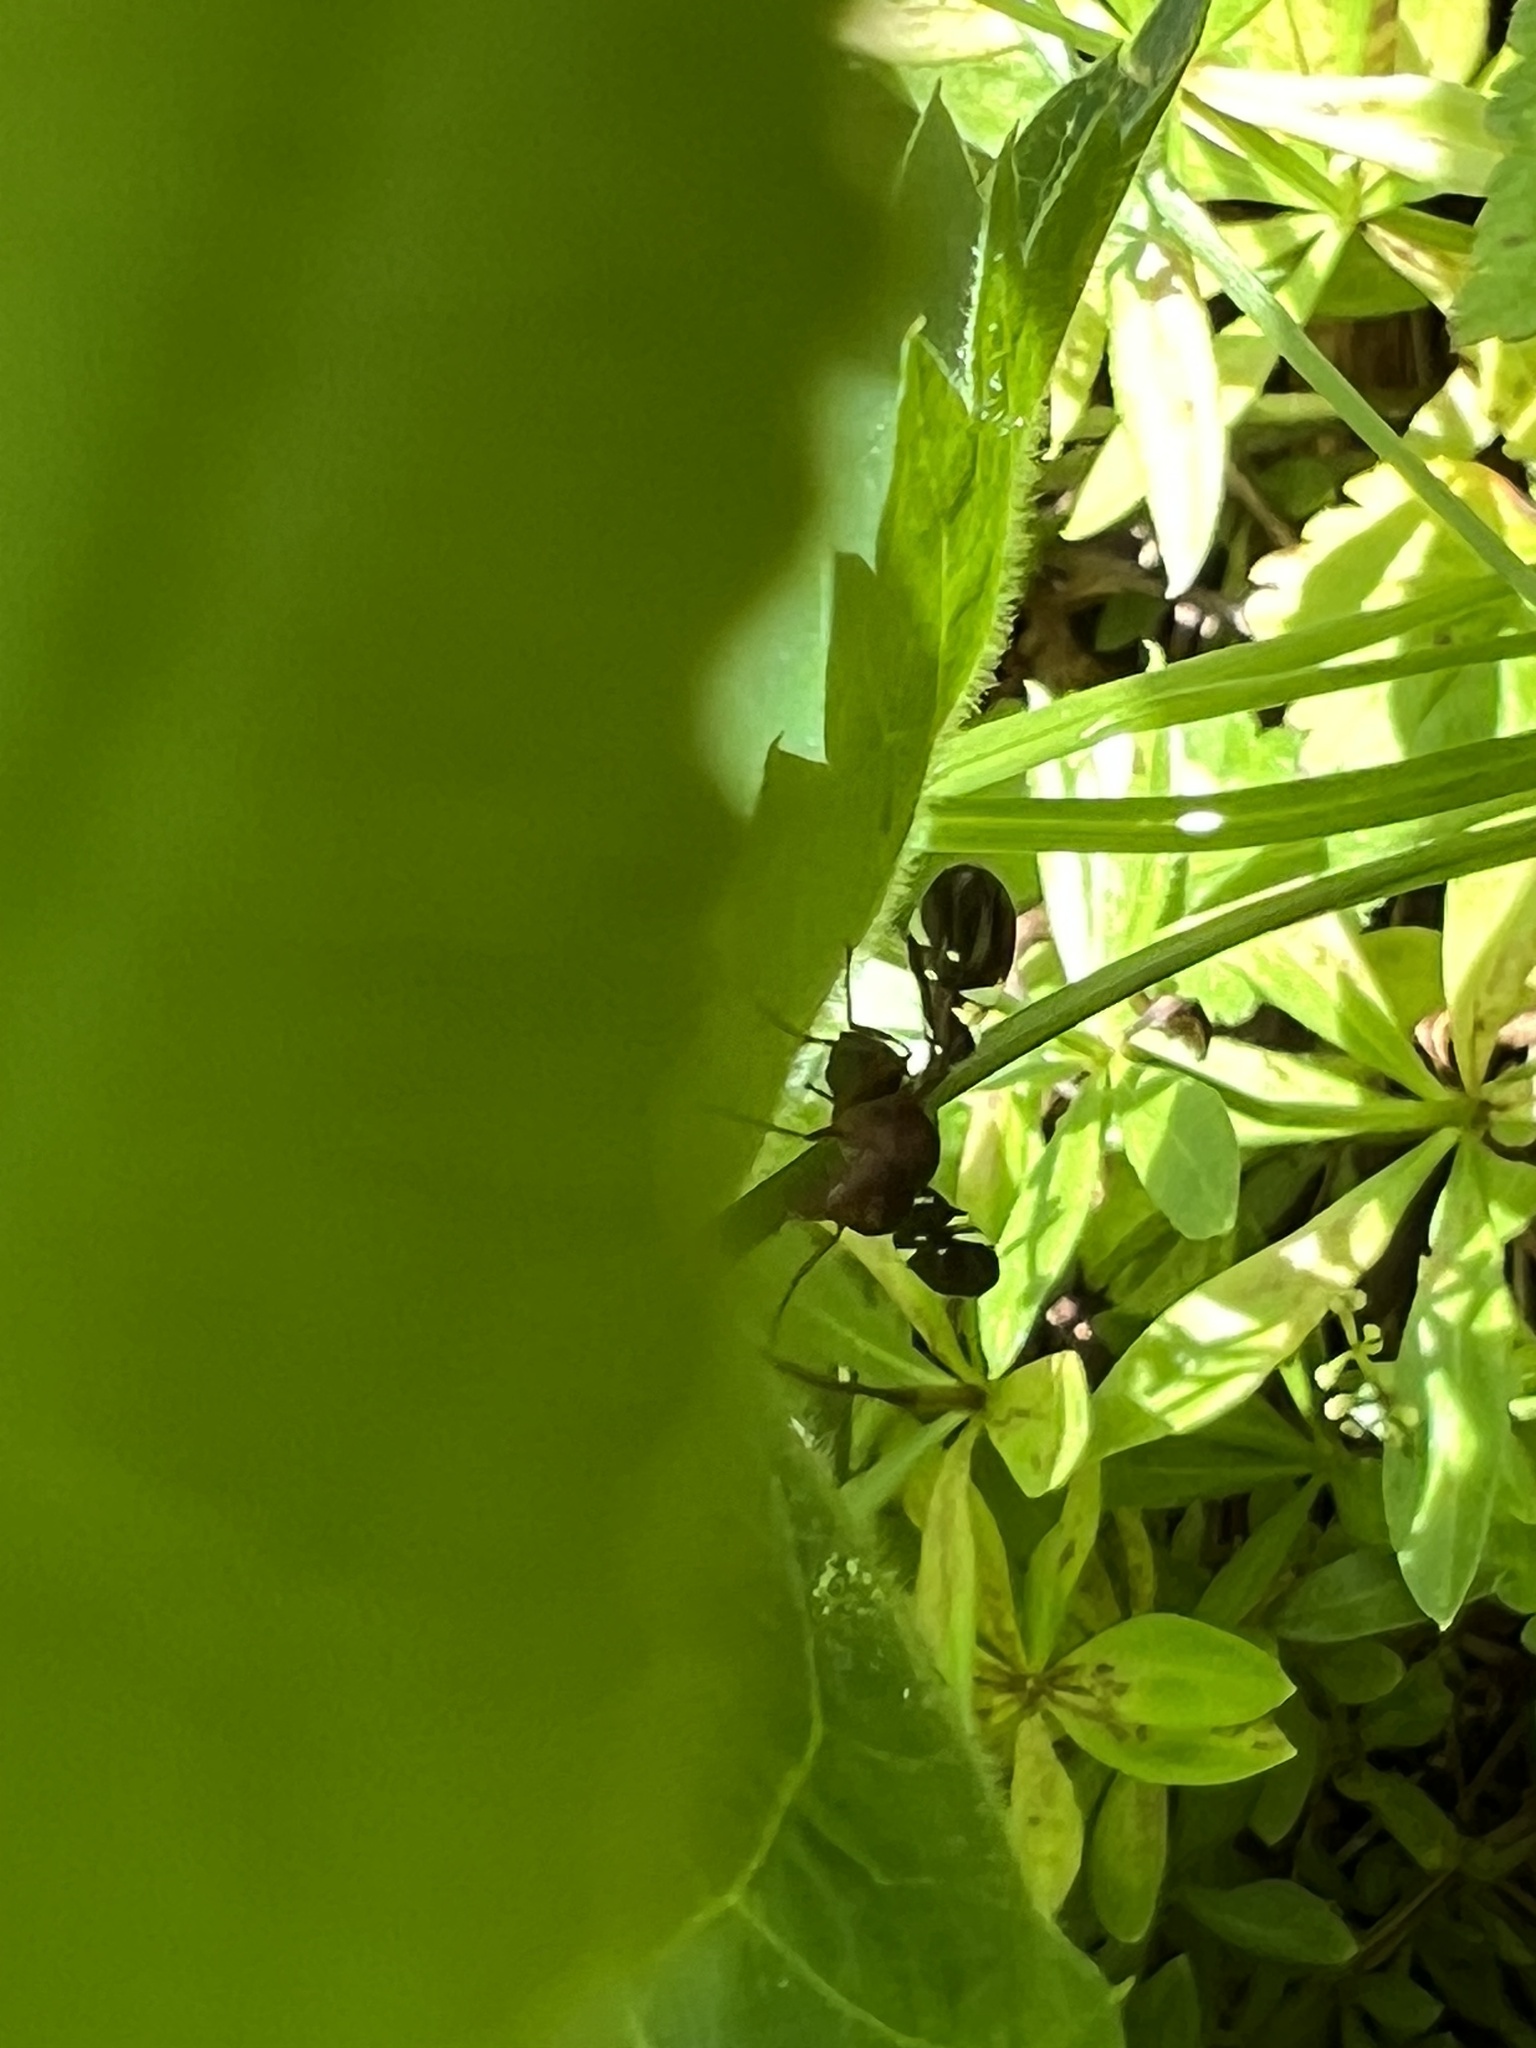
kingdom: Animalia
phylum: Arthropoda
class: Insecta
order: Diptera
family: Ulidiidae
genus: Delphinia
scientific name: Delphinia picta
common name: Common picture-winged fly
